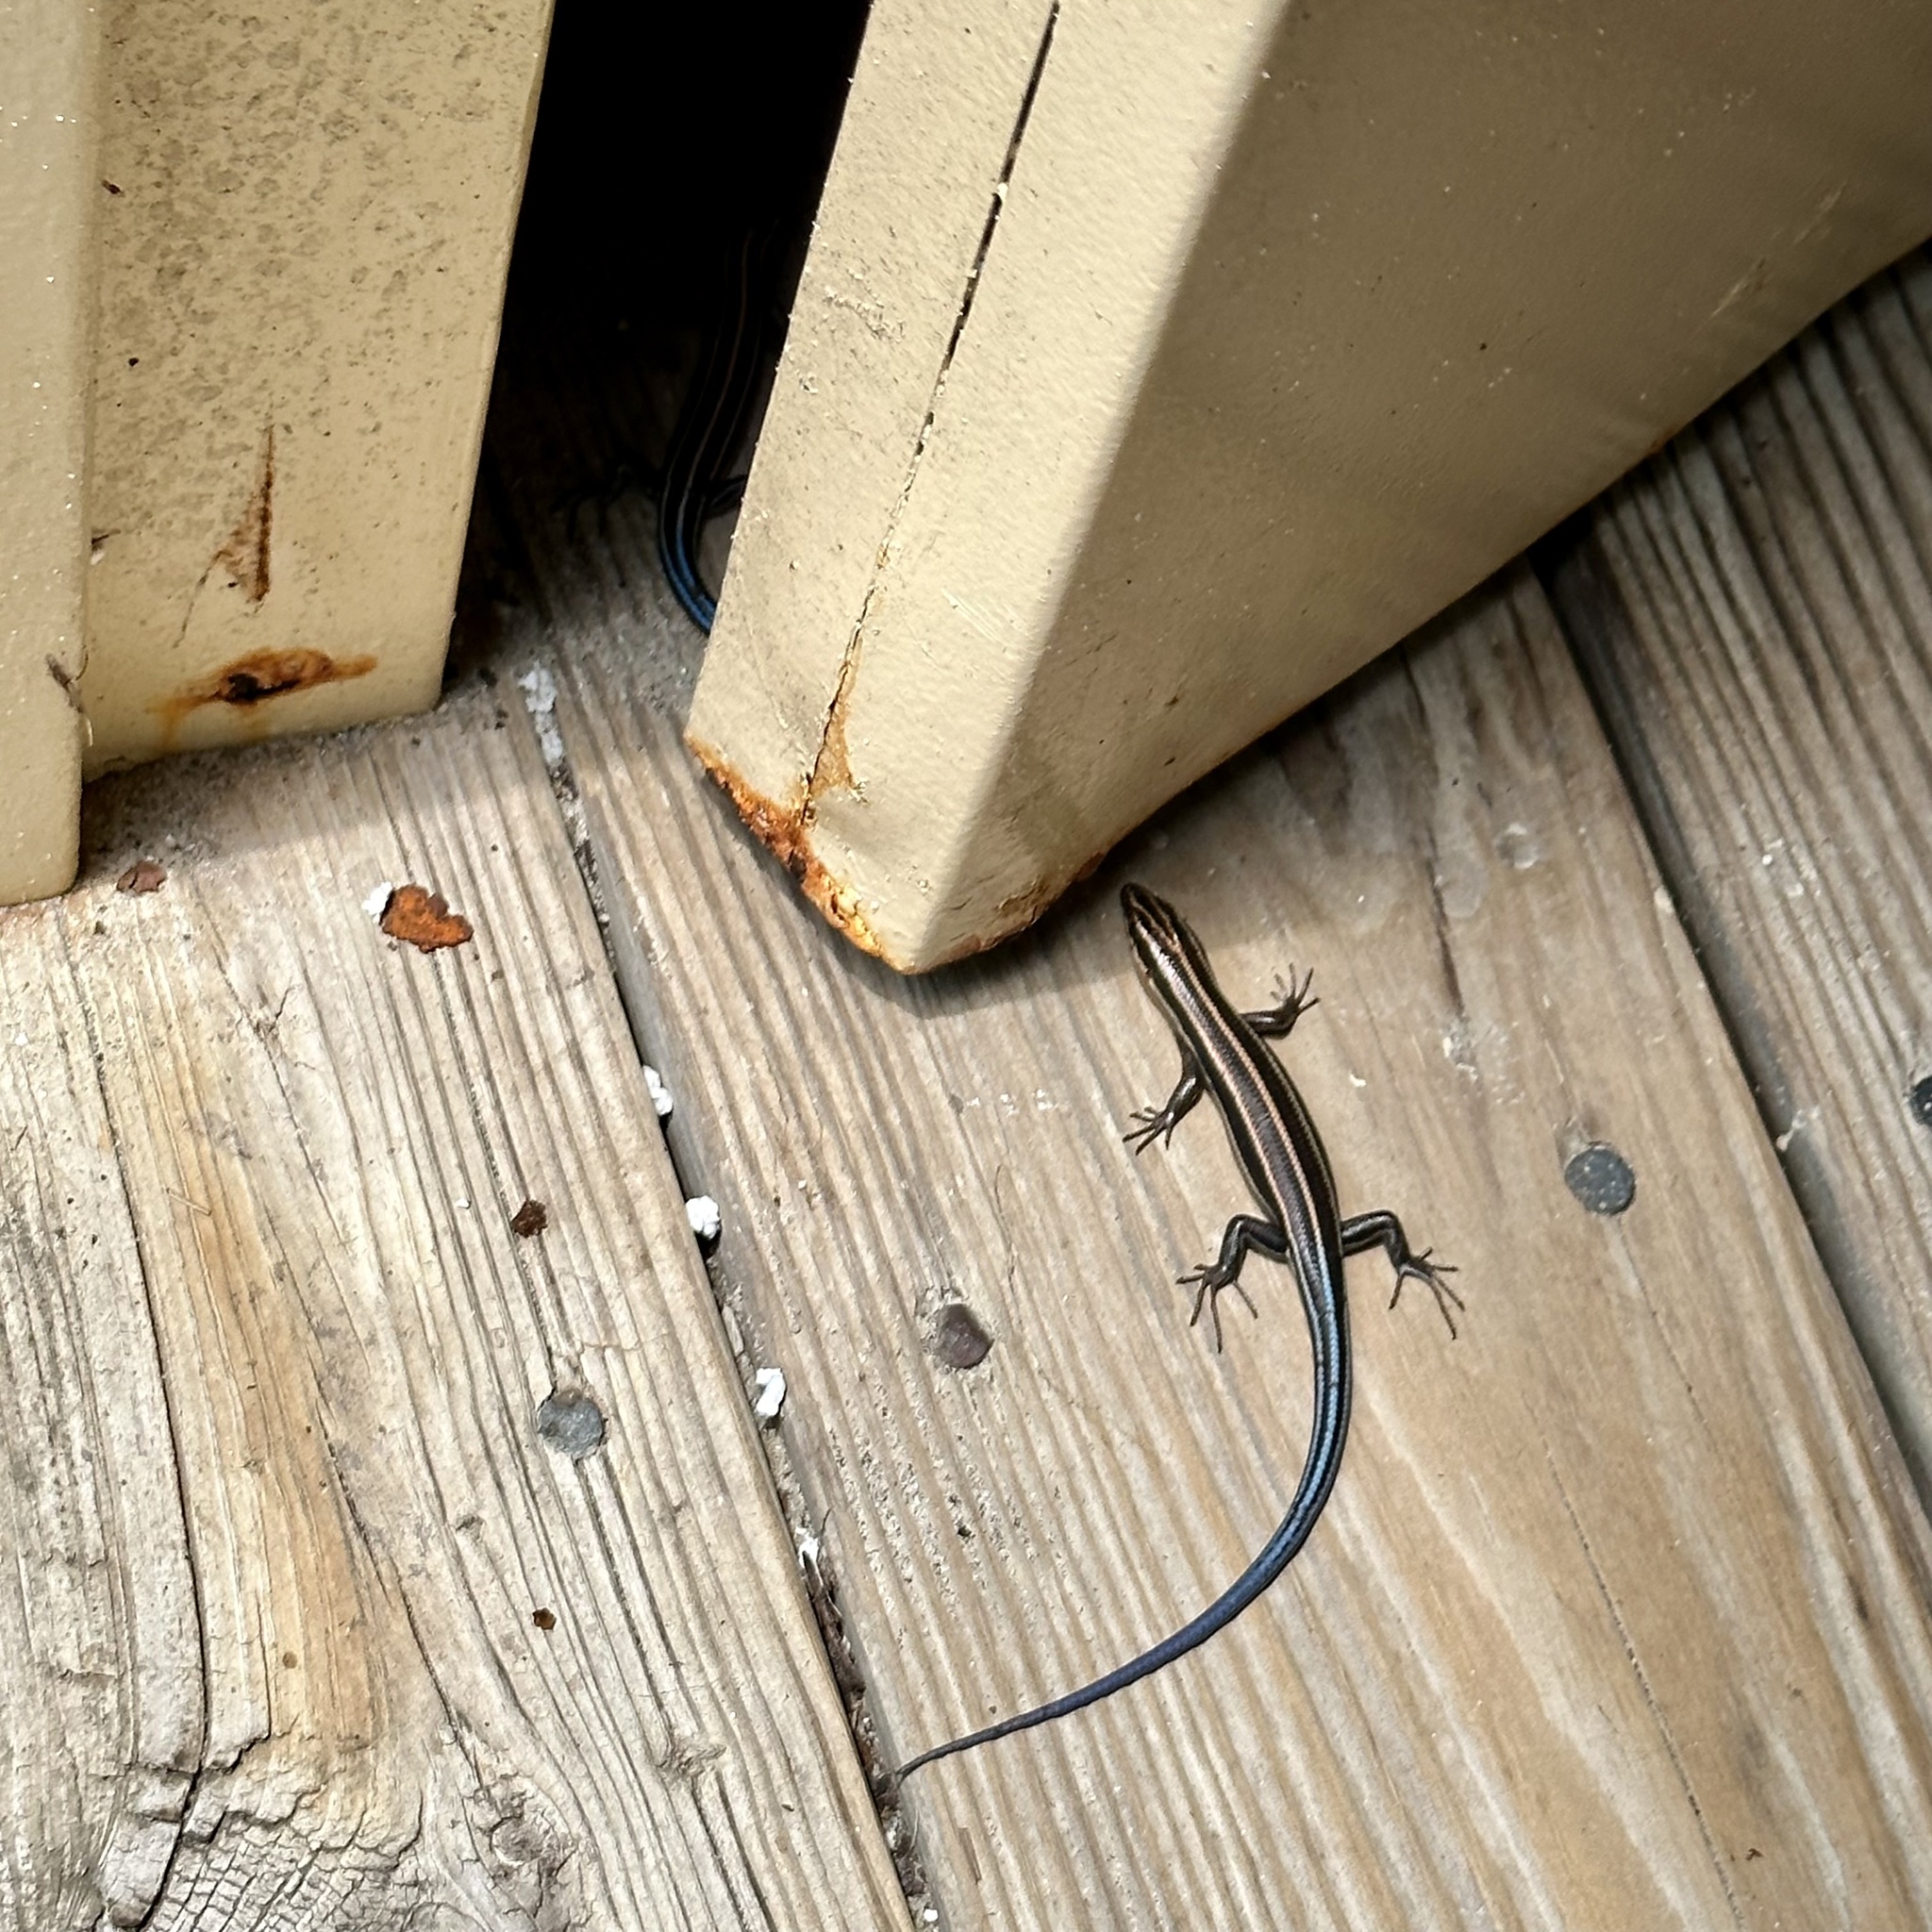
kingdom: Animalia
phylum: Chordata
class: Squamata
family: Scincidae
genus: Plestiodon
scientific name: Plestiodon fasciatus
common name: Five-lined skink
